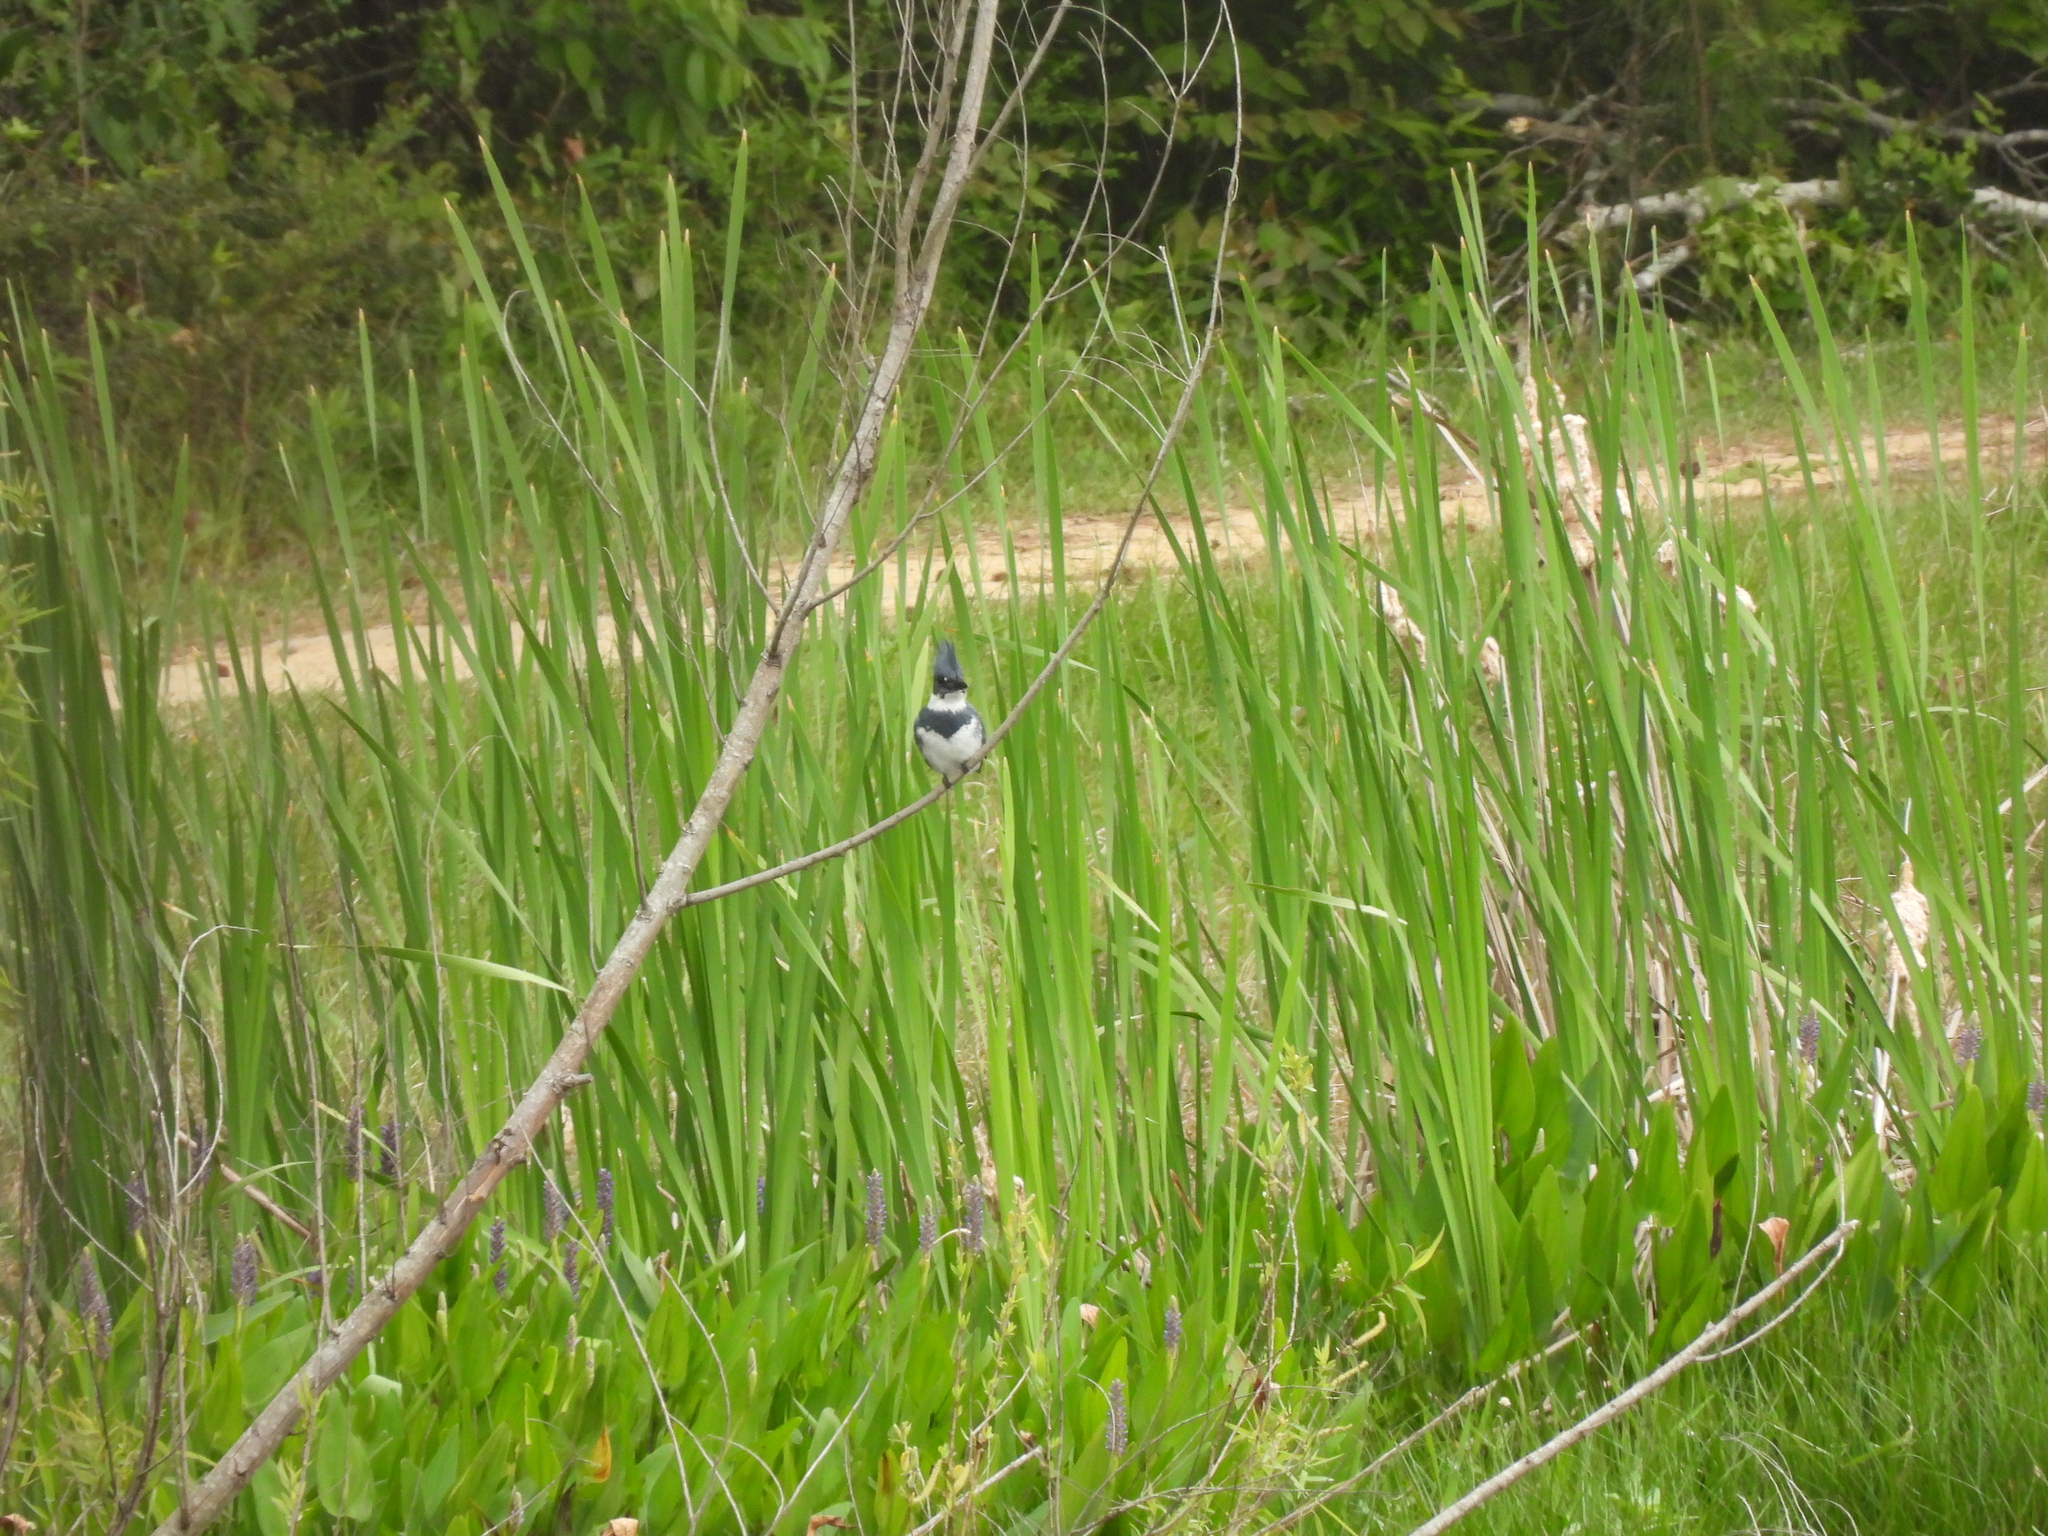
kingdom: Animalia
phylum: Chordata
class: Aves
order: Coraciiformes
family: Alcedinidae
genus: Megaceryle
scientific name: Megaceryle alcyon
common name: Belted kingfisher
